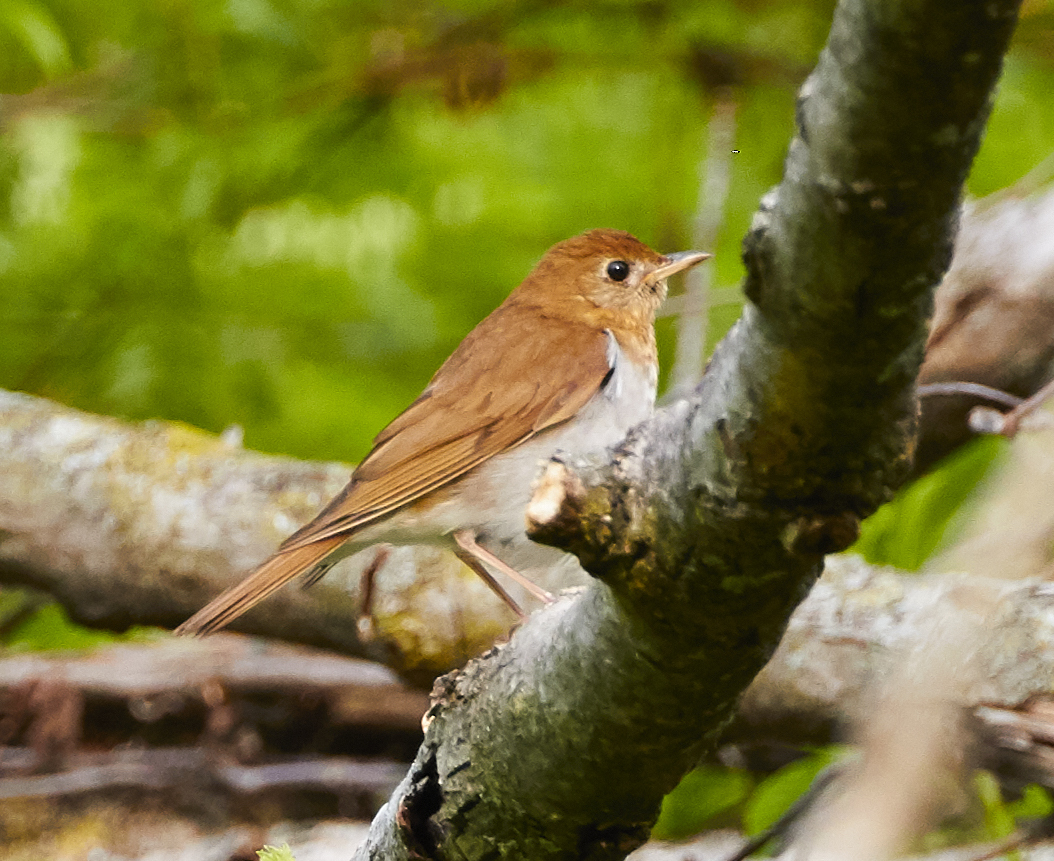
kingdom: Animalia
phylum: Chordata
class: Aves
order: Passeriformes
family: Turdidae
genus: Catharus
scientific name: Catharus fuscescens
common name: Veery
